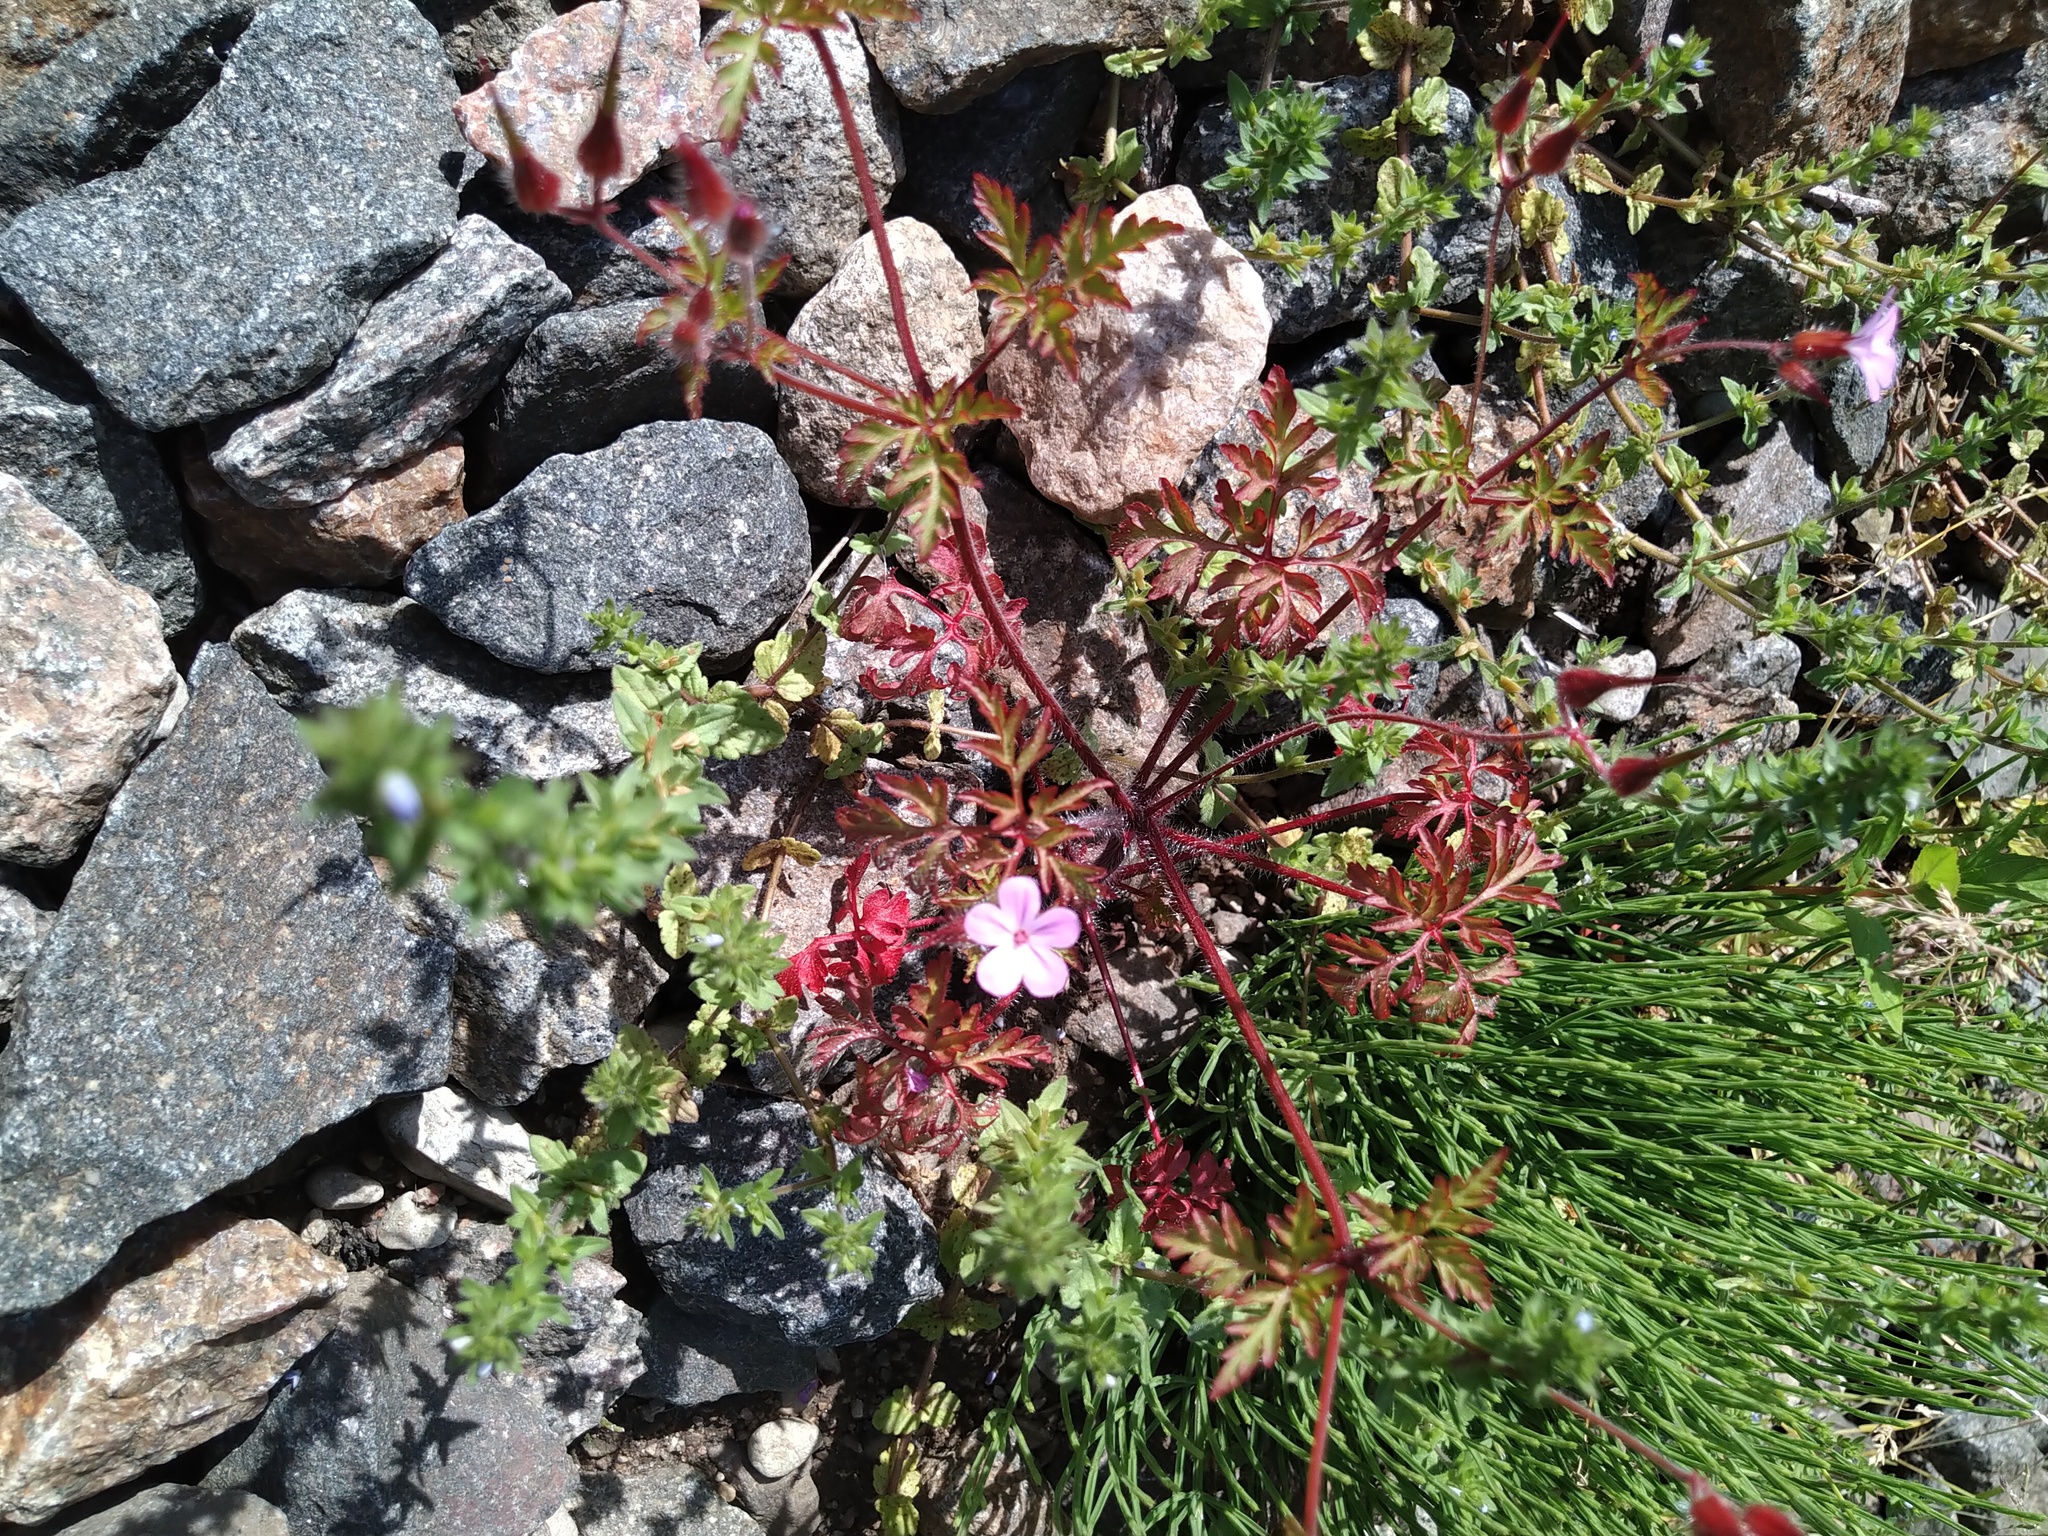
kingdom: Plantae
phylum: Tracheophyta
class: Magnoliopsida
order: Geraniales
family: Geraniaceae
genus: Geranium
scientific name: Geranium robertianum
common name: Herb-robert
